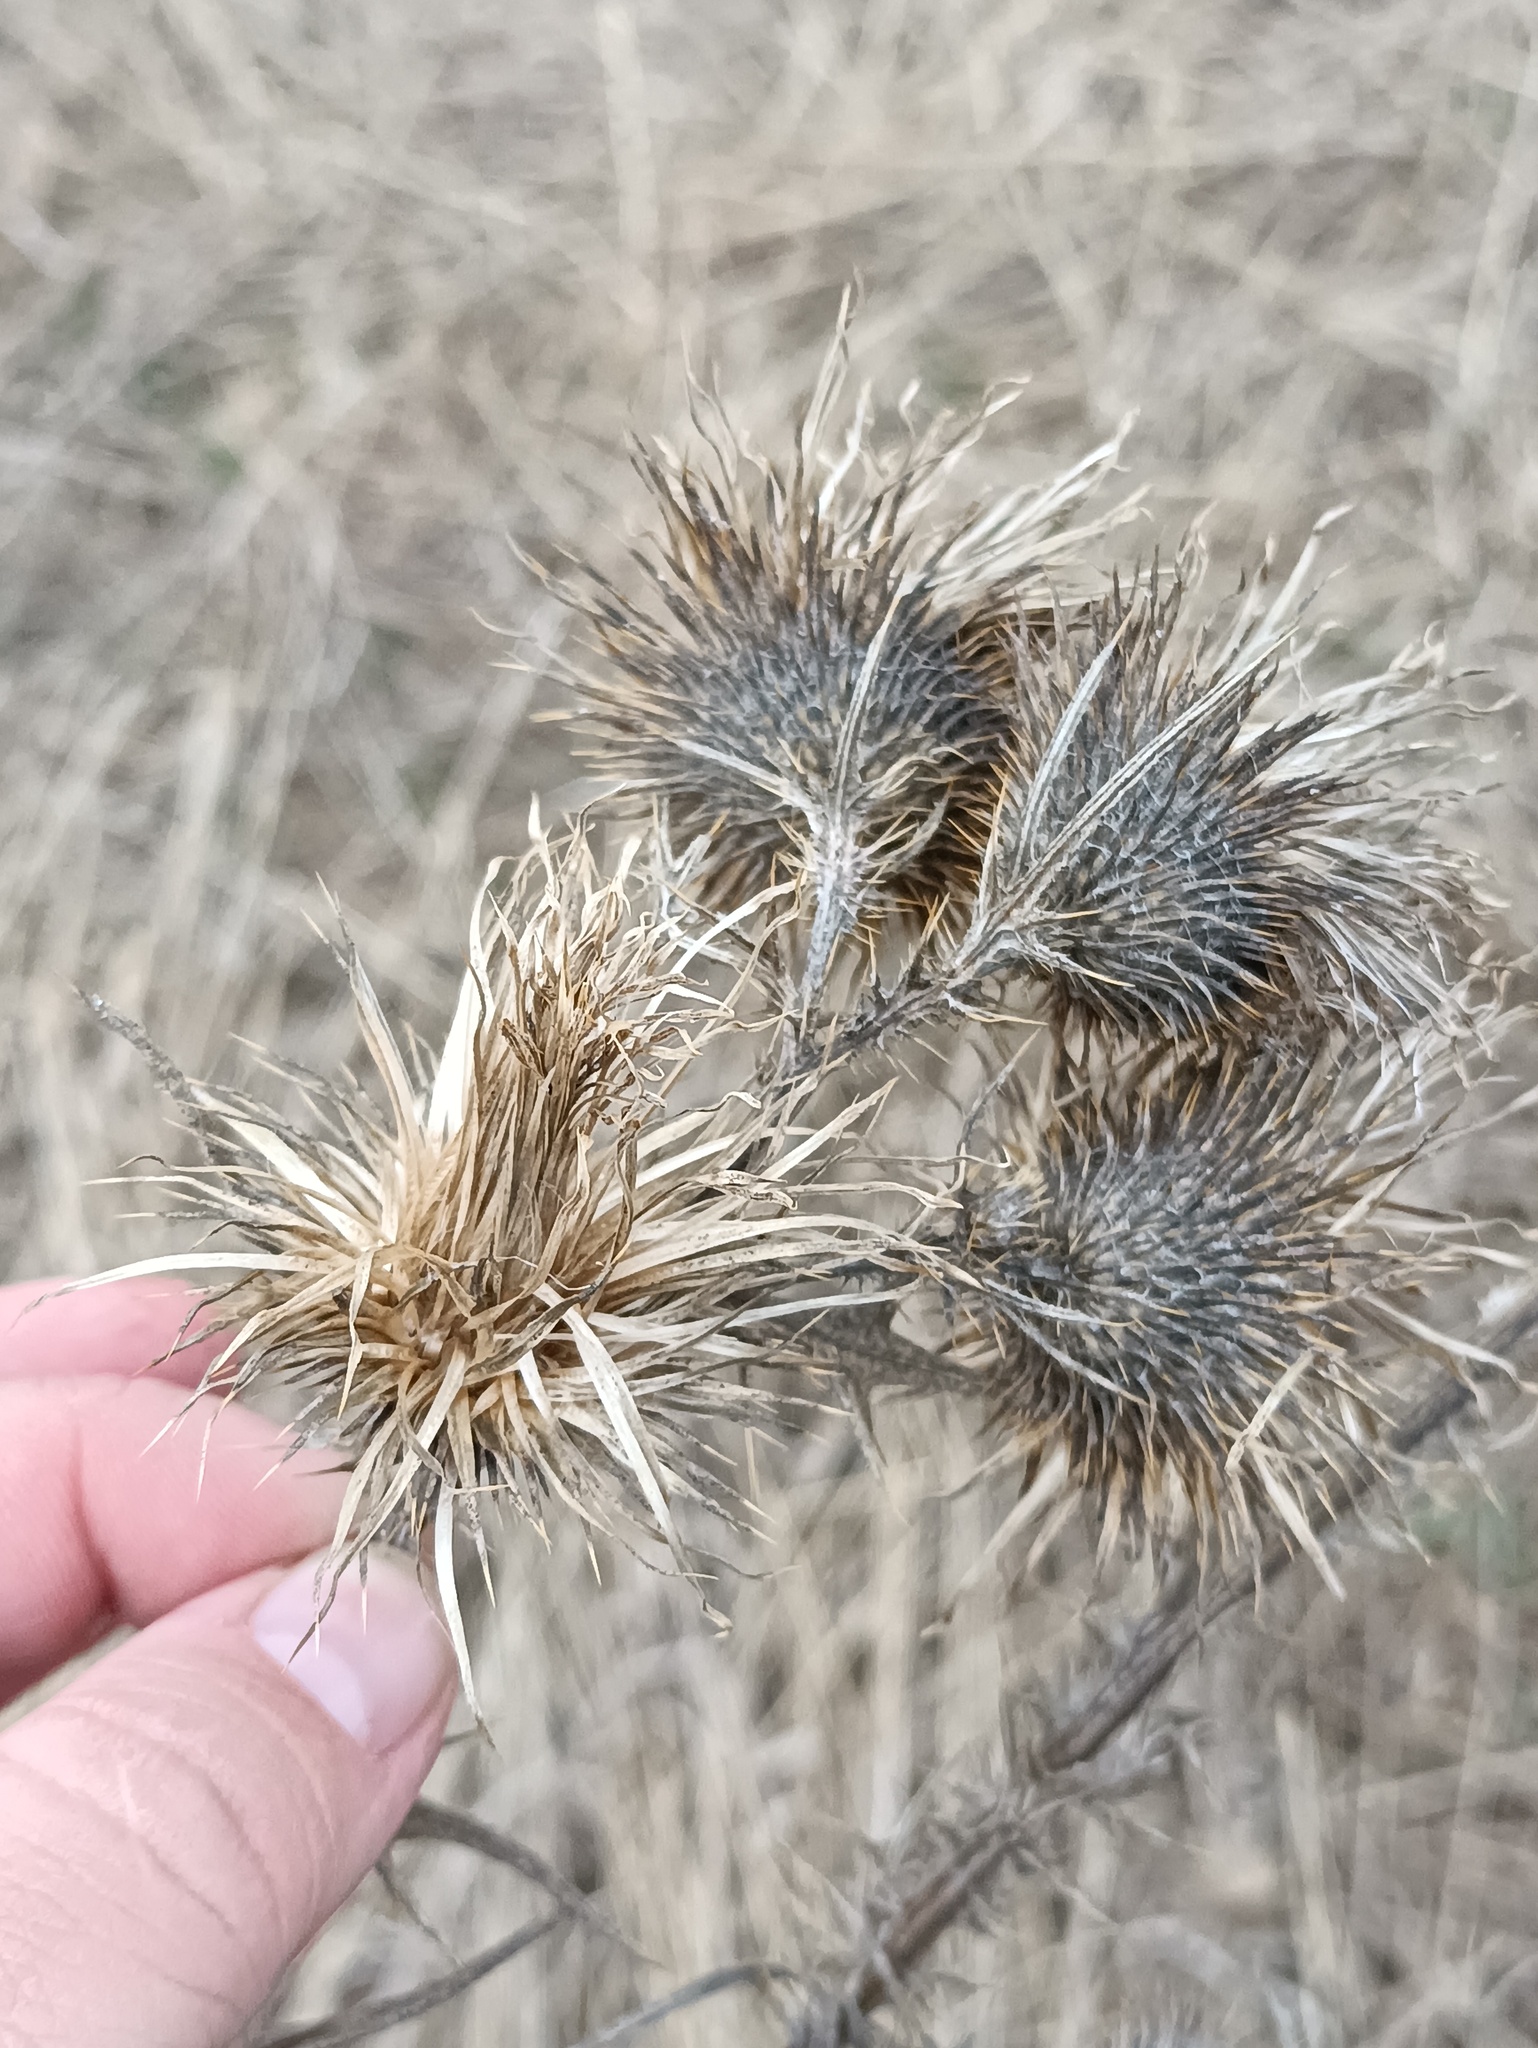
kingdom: Plantae
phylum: Tracheophyta
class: Magnoliopsida
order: Asterales
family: Asteraceae
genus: Cirsium
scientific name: Cirsium vulgare
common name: Bull thistle
